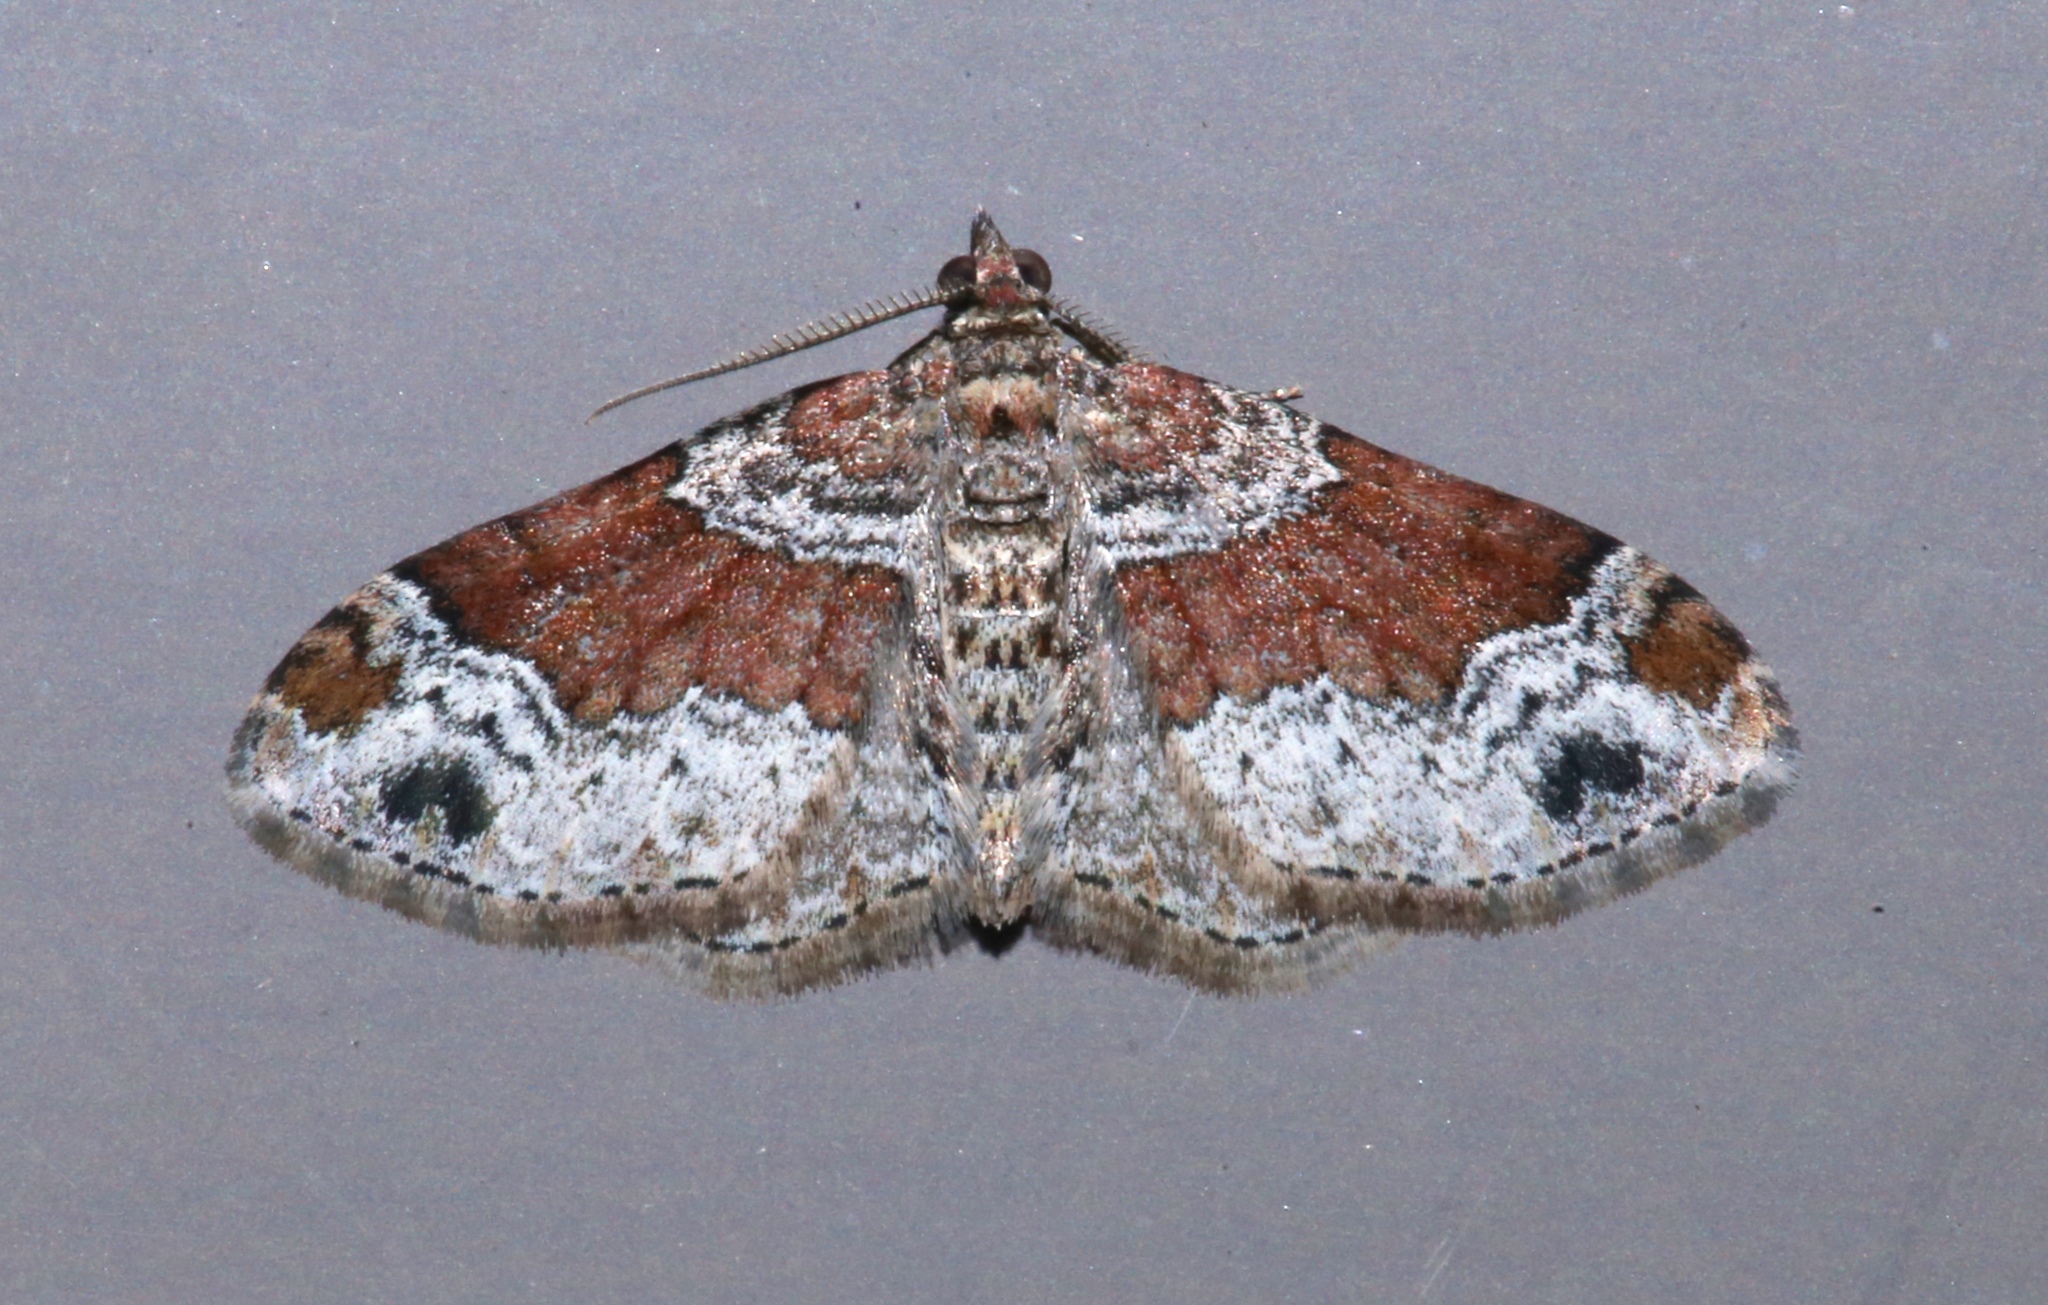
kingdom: Animalia
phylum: Arthropoda
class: Insecta
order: Lepidoptera
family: Geometridae
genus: Xanthorhoe
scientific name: Xanthorhoe ferrugata
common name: Dark-barred twin-spot carpet
